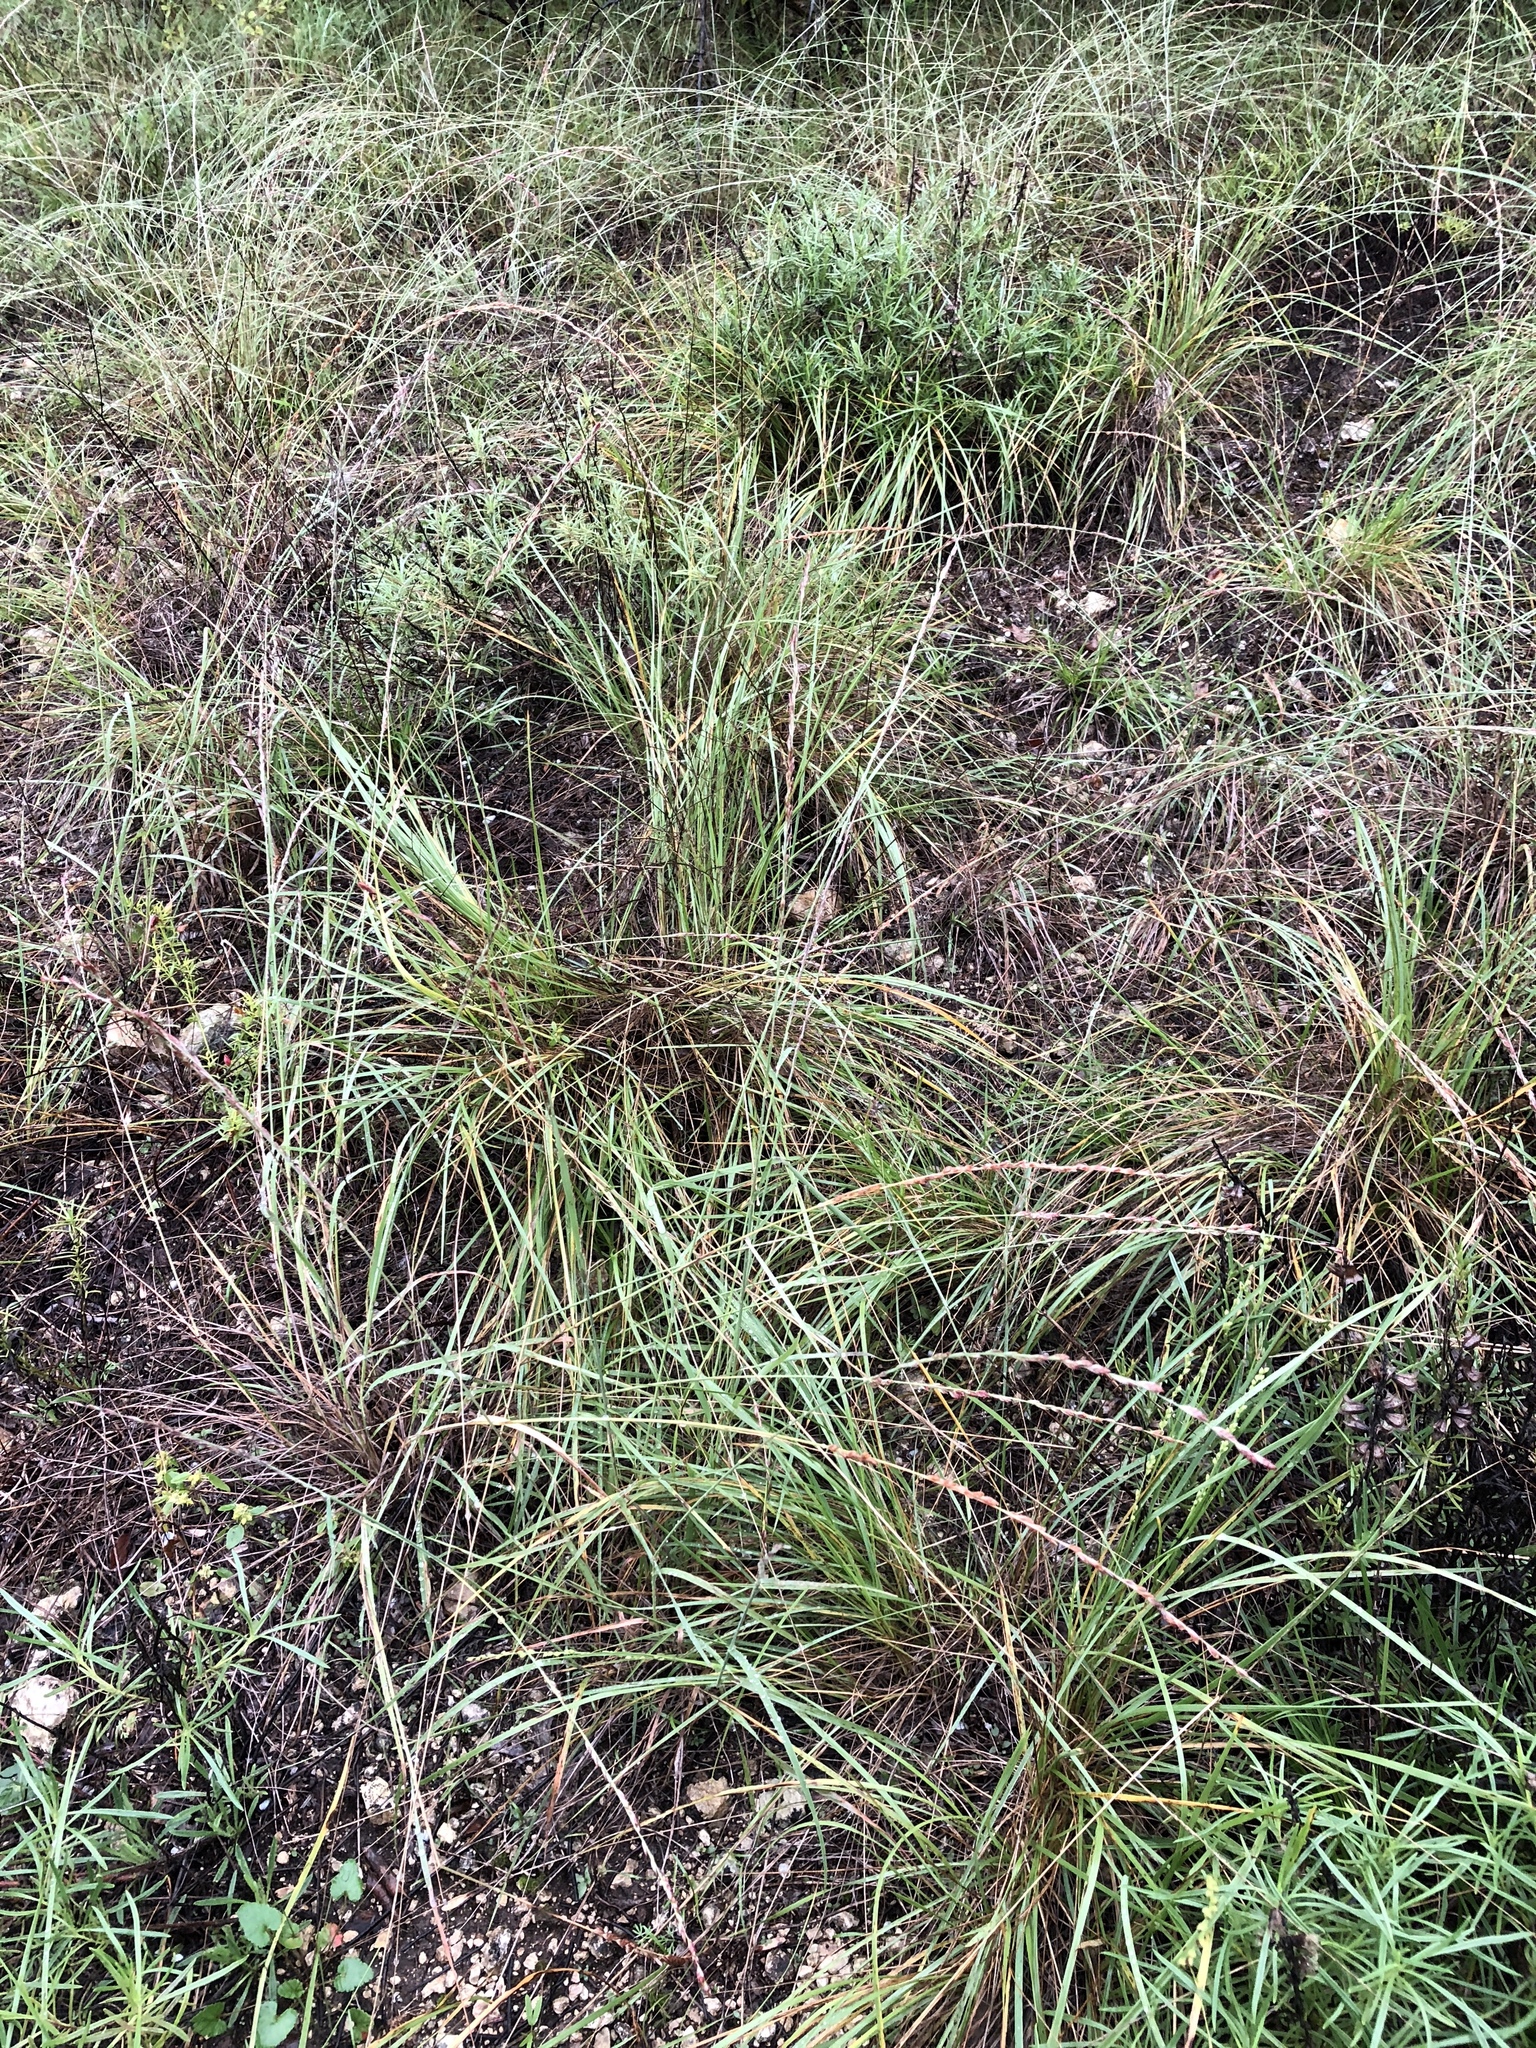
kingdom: Plantae
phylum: Tracheophyta
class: Liliopsida
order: Poales
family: Poaceae
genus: Tridentopsis
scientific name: Tridentopsis mutica
